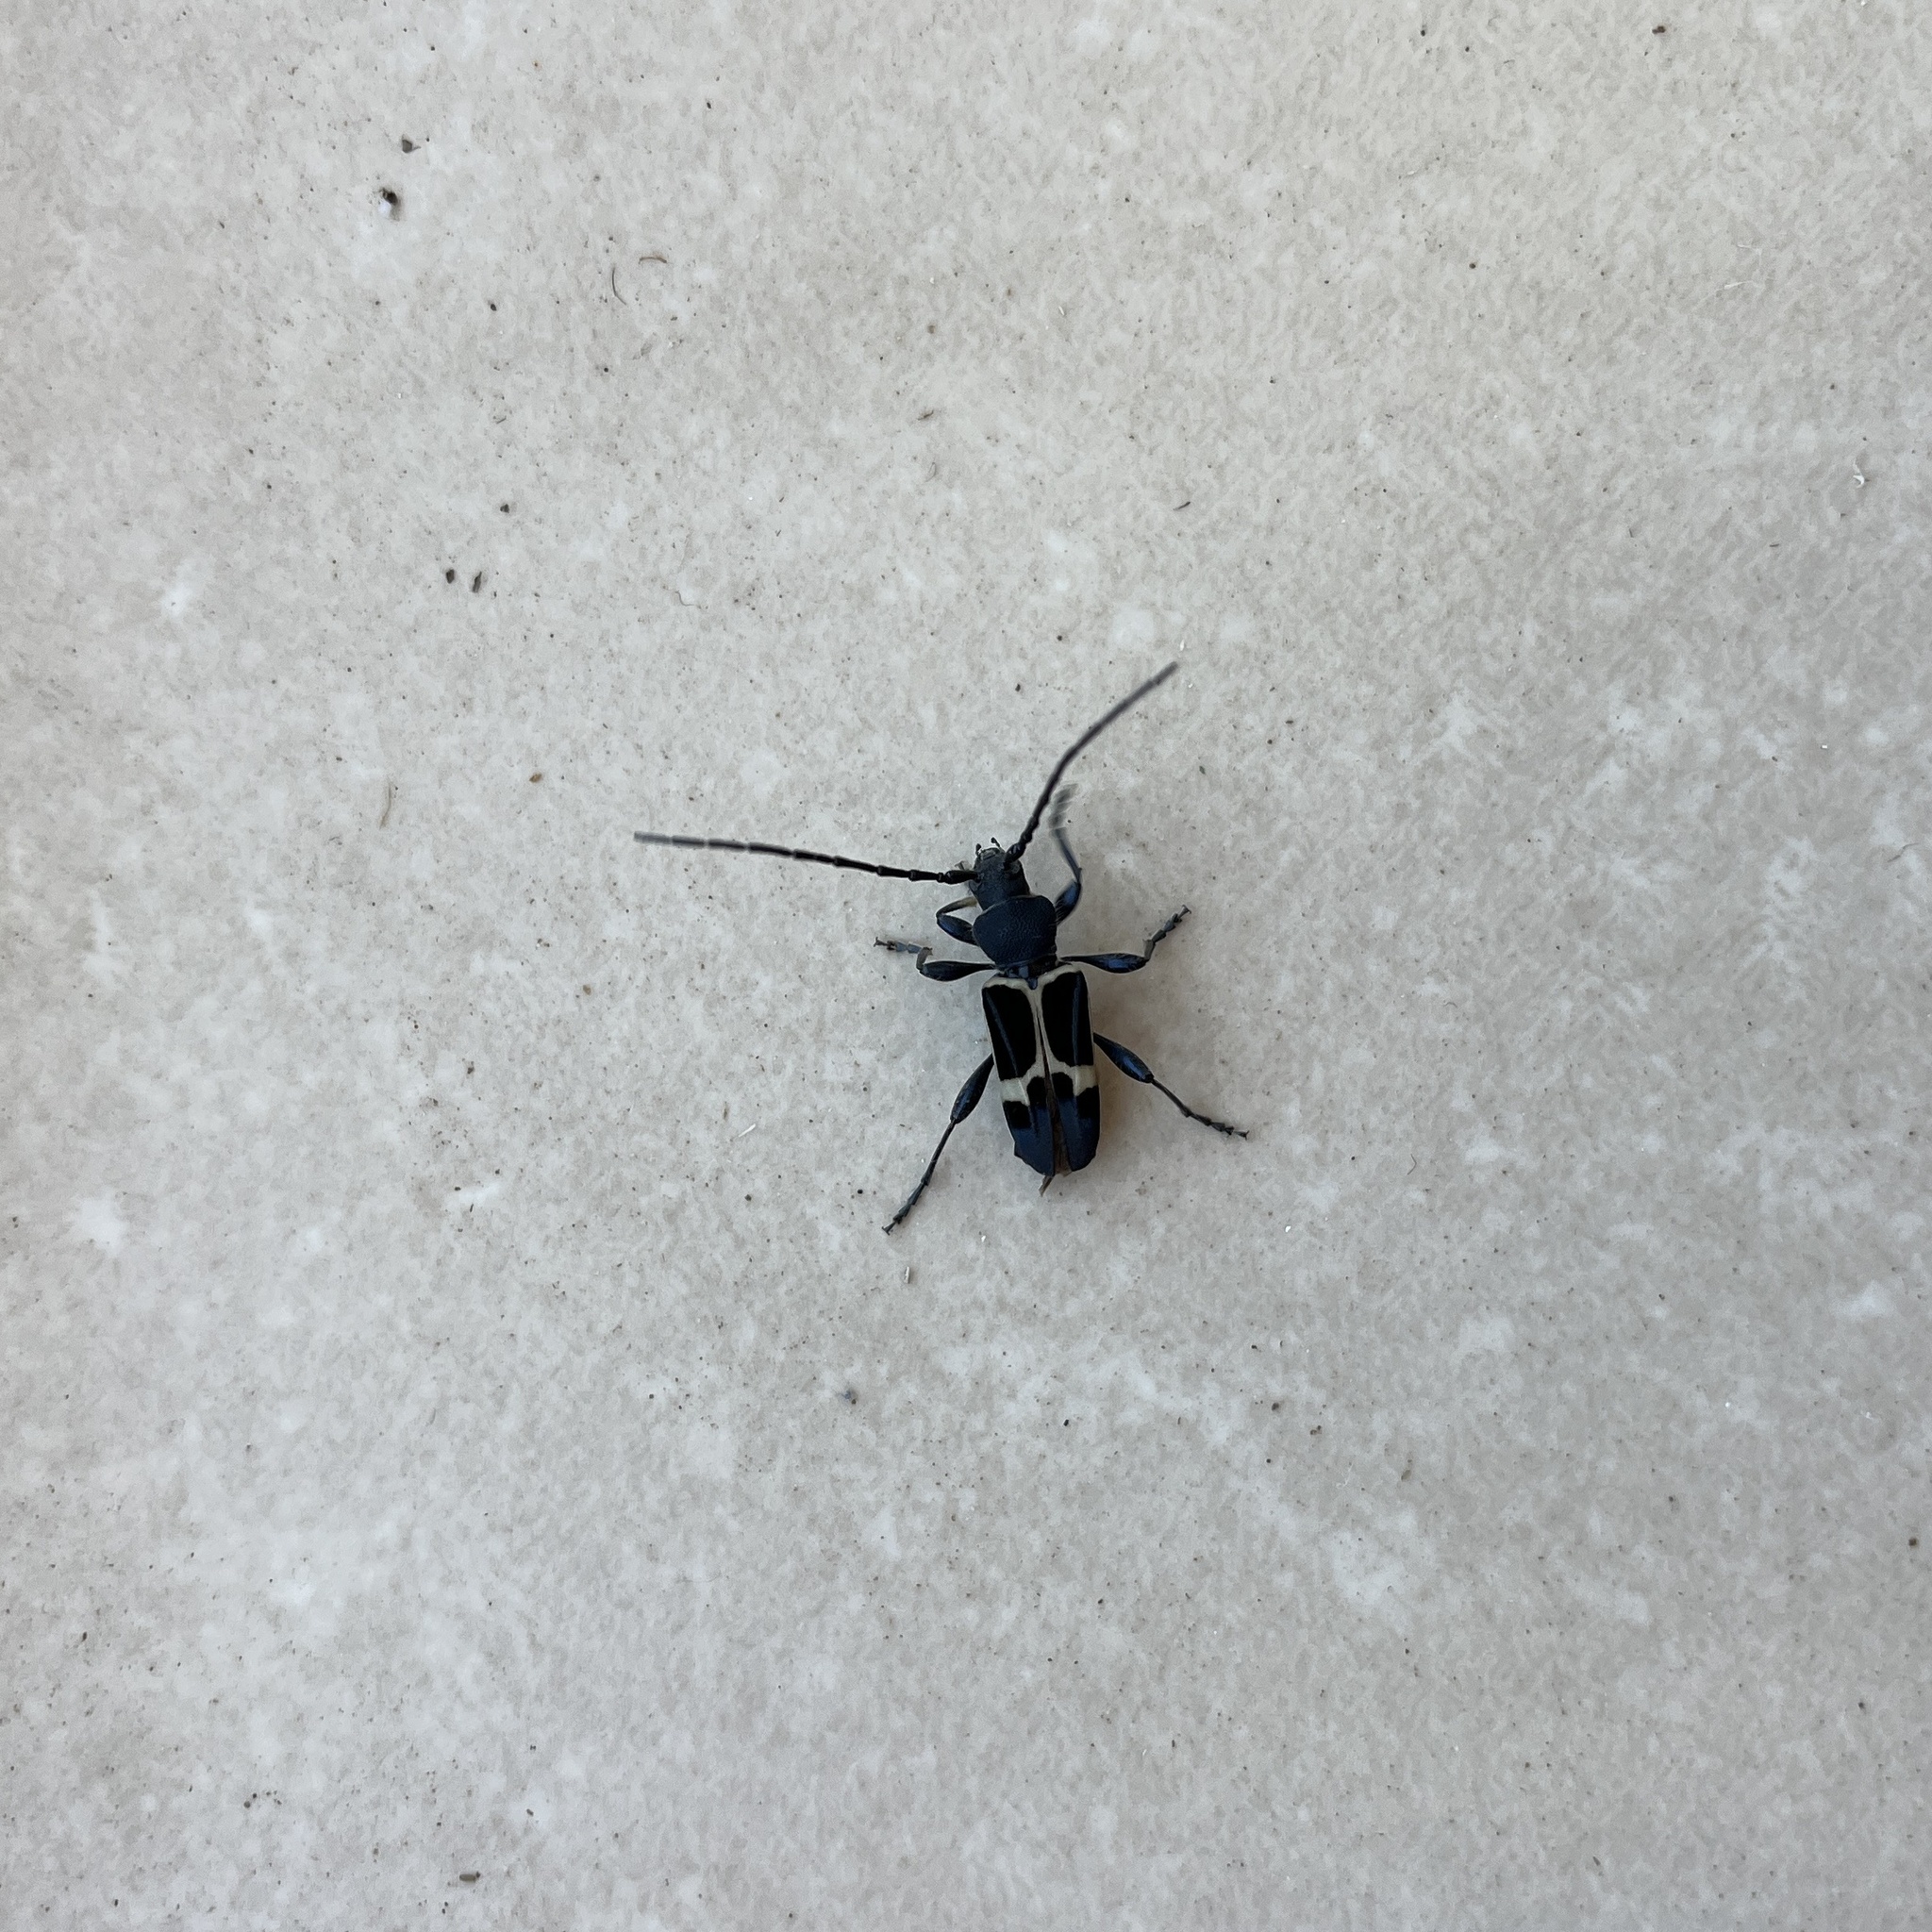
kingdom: Animalia
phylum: Arthropoda
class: Insecta
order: Coleoptera
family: Cerambycidae
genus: Calydon
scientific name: Calydon submetallicum
